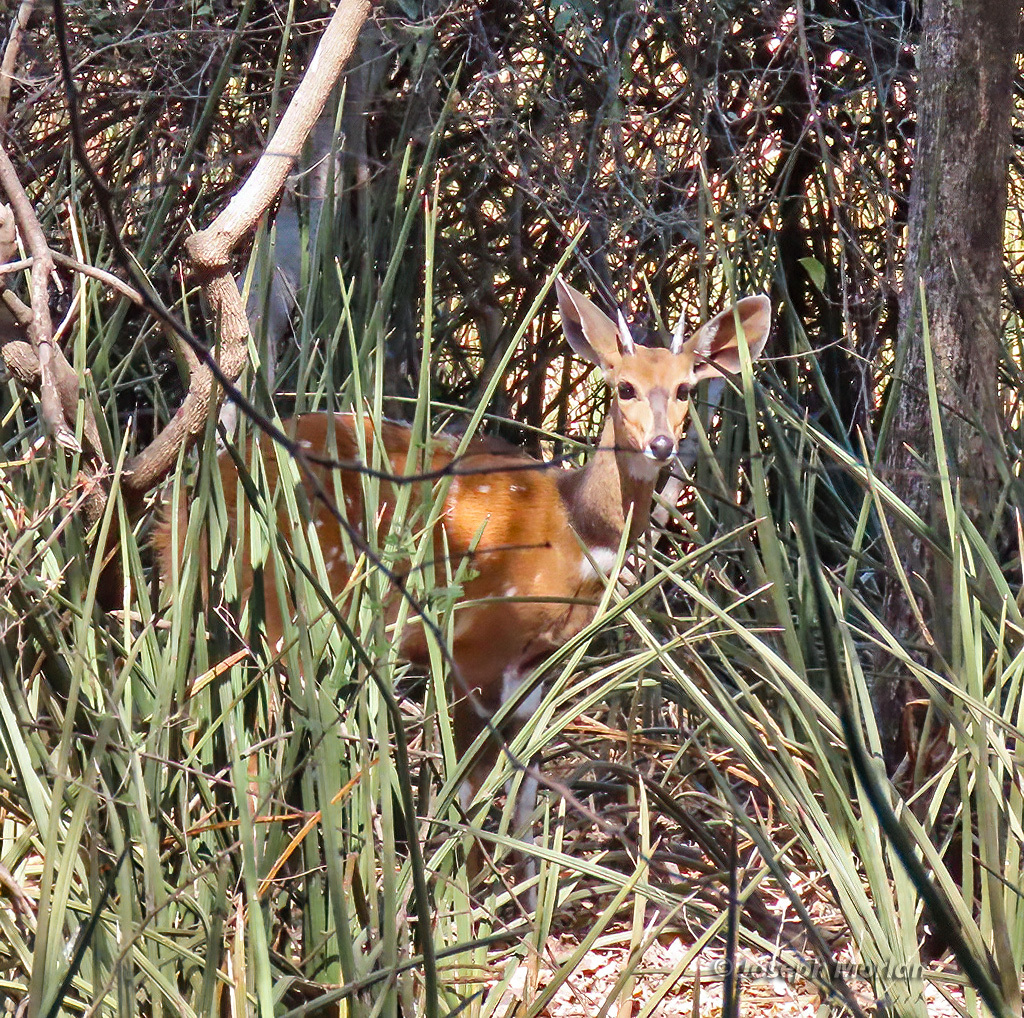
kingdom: Animalia
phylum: Chordata
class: Mammalia
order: Artiodactyla
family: Bovidae
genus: Tragelaphus
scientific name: Tragelaphus scriptus
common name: Bushbuck
